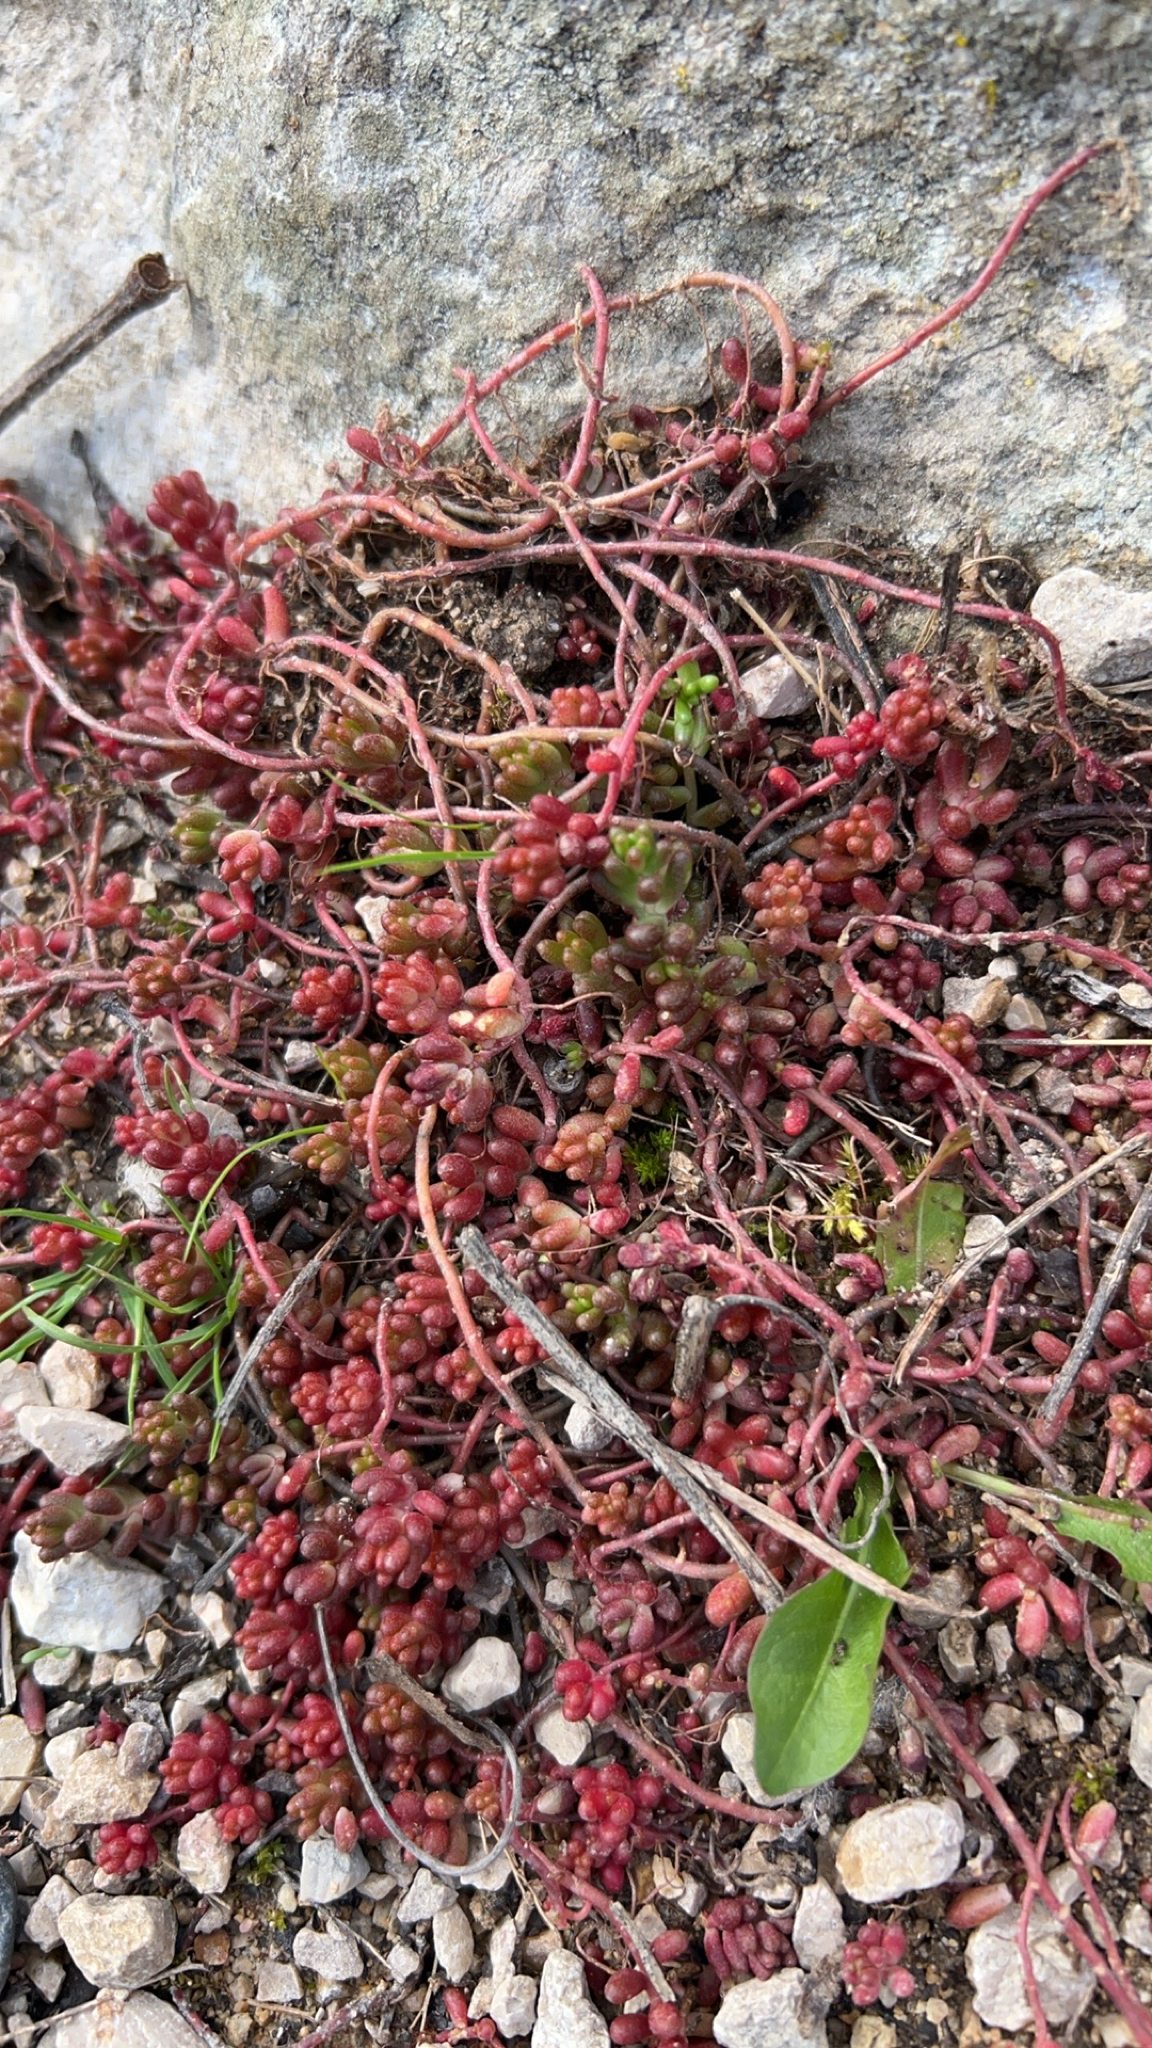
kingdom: Plantae
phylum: Tracheophyta
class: Magnoliopsida
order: Saxifragales
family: Crassulaceae
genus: Sedum
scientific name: Sedum album
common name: White stonecrop
